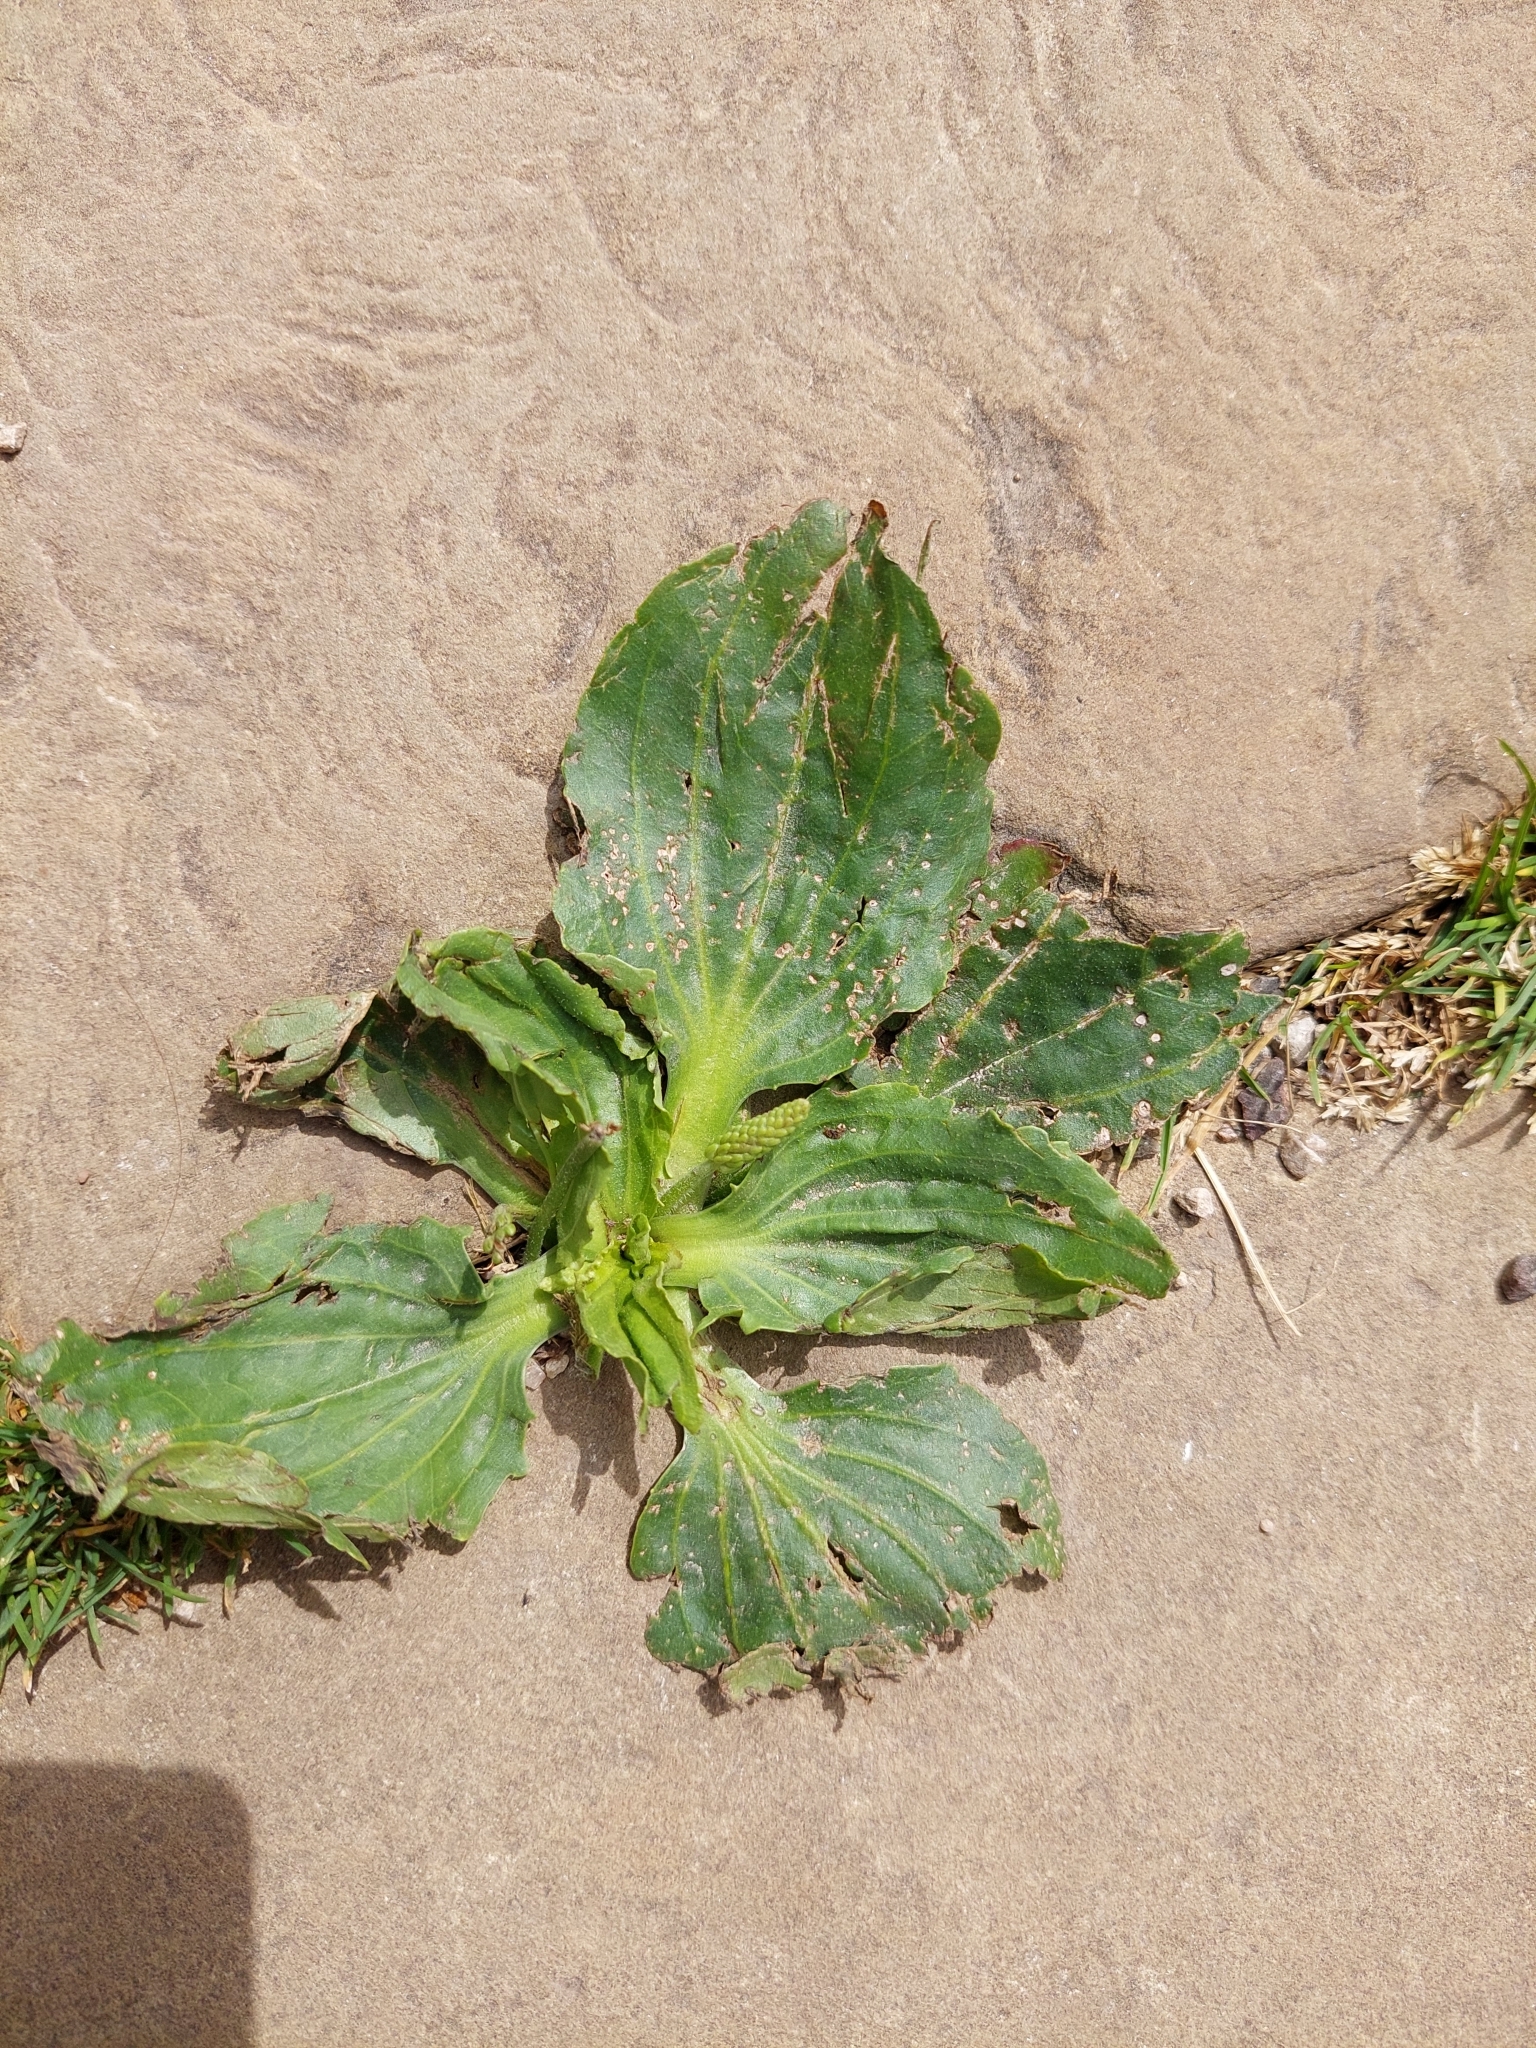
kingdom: Plantae
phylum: Tracheophyta
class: Magnoliopsida
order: Lamiales
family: Plantaginaceae
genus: Plantago
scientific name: Plantago major
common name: Common plantain
